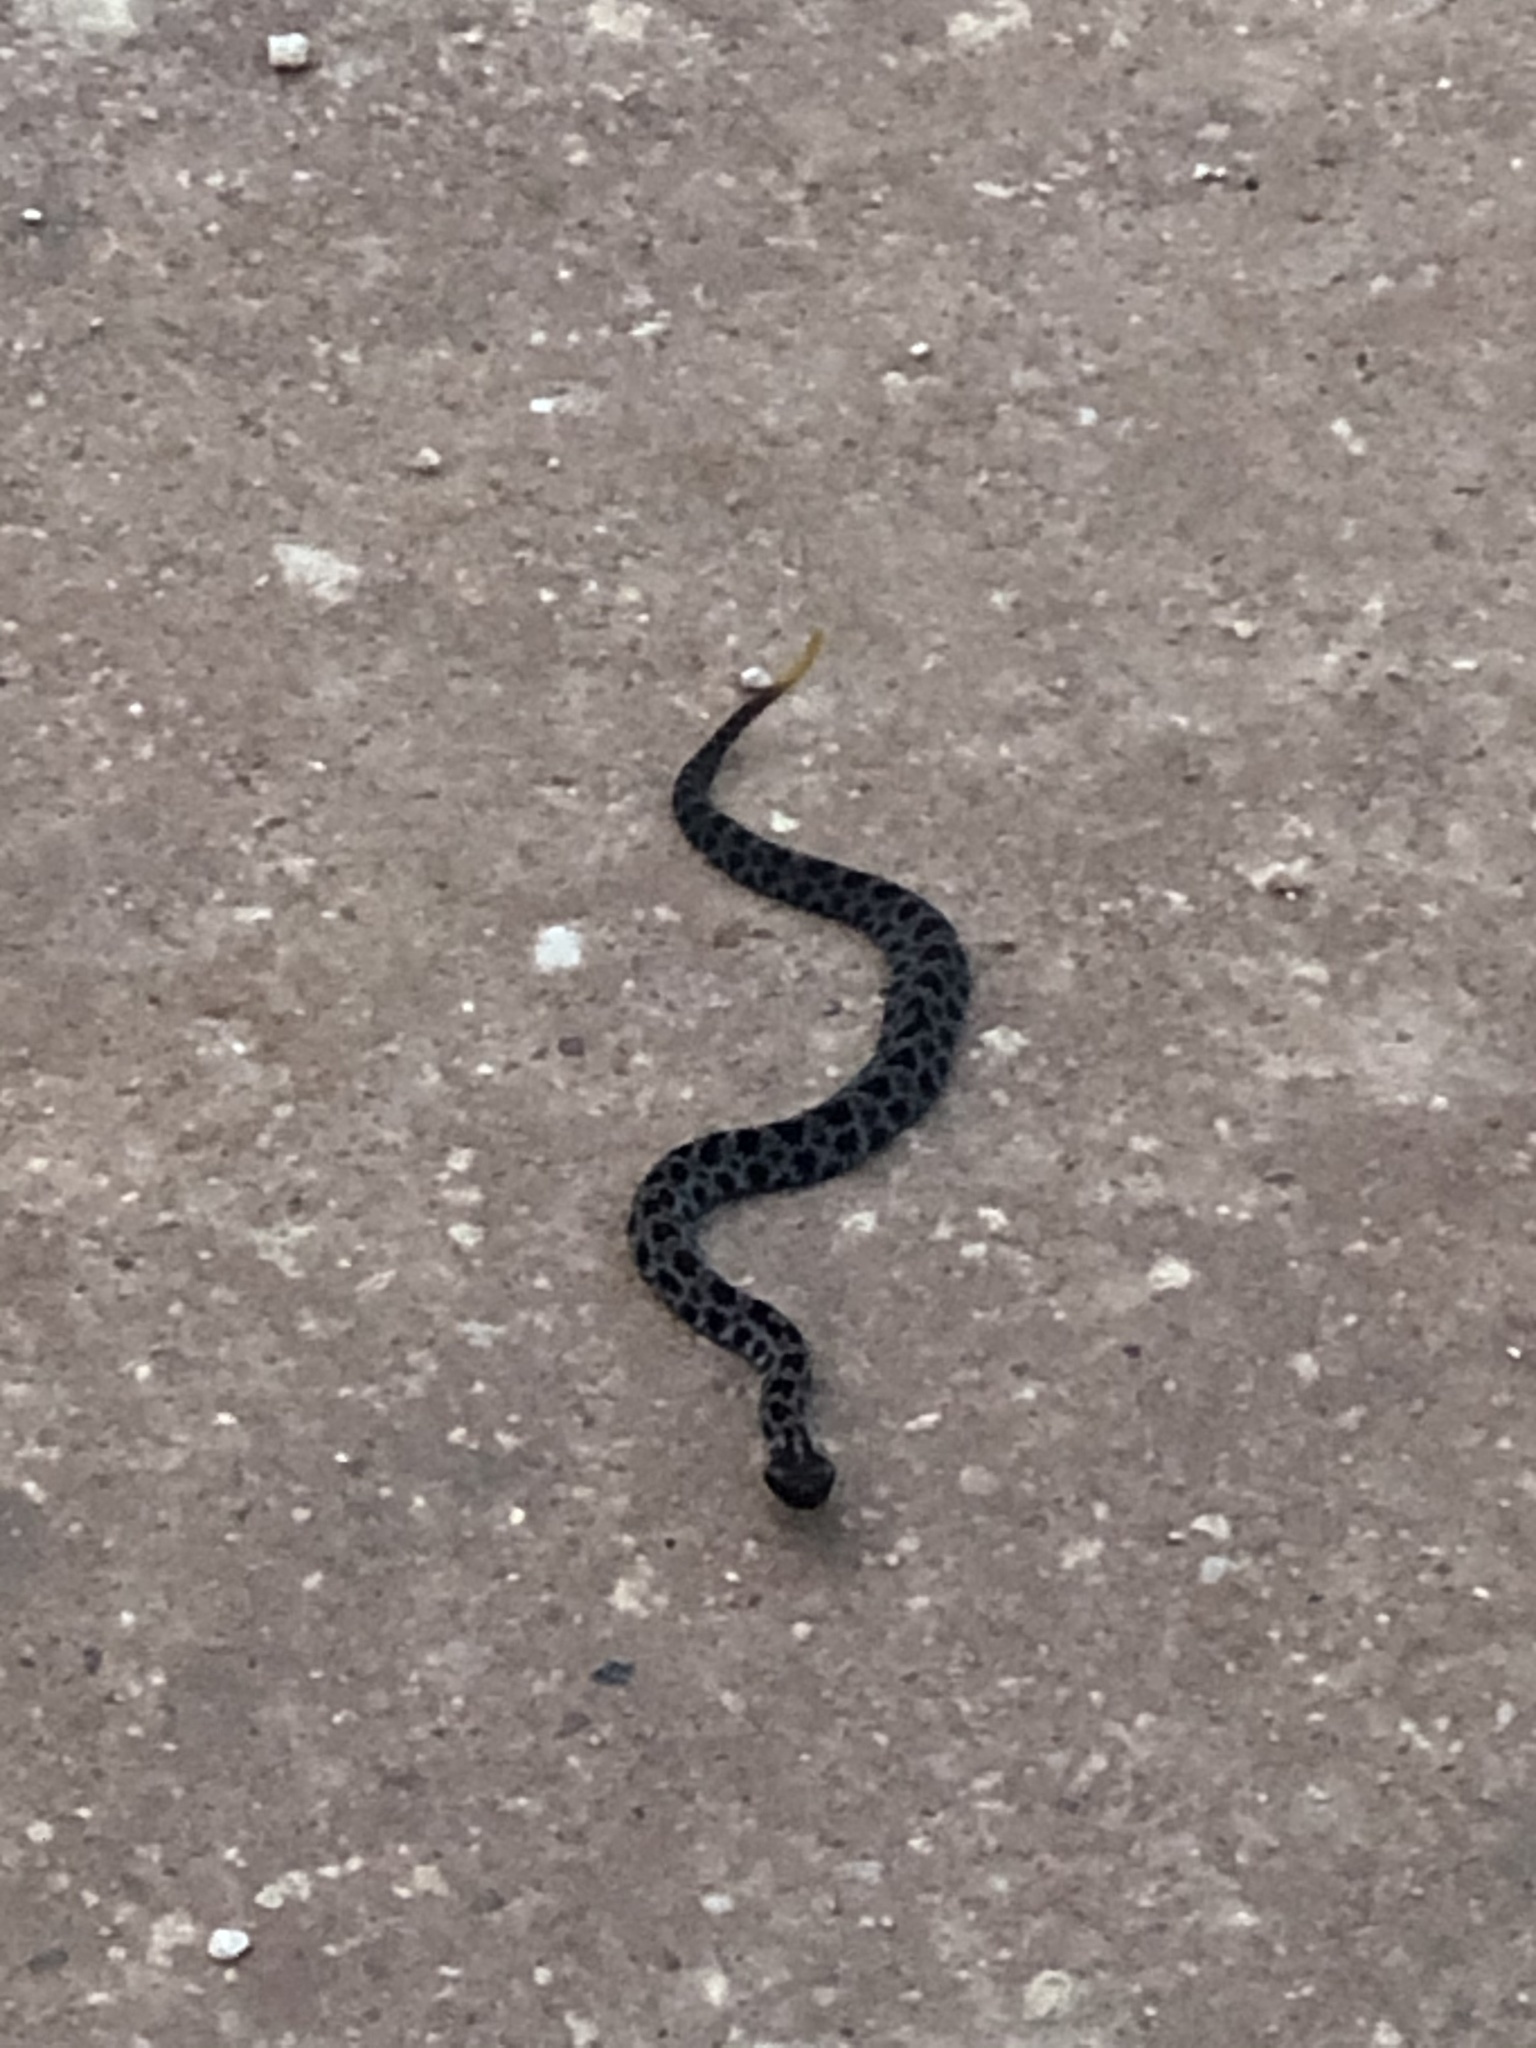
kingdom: Animalia
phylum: Chordata
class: Squamata
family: Viperidae
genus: Sistrurus
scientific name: Sistrurus miliarius
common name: Pygmy rattlesnake
